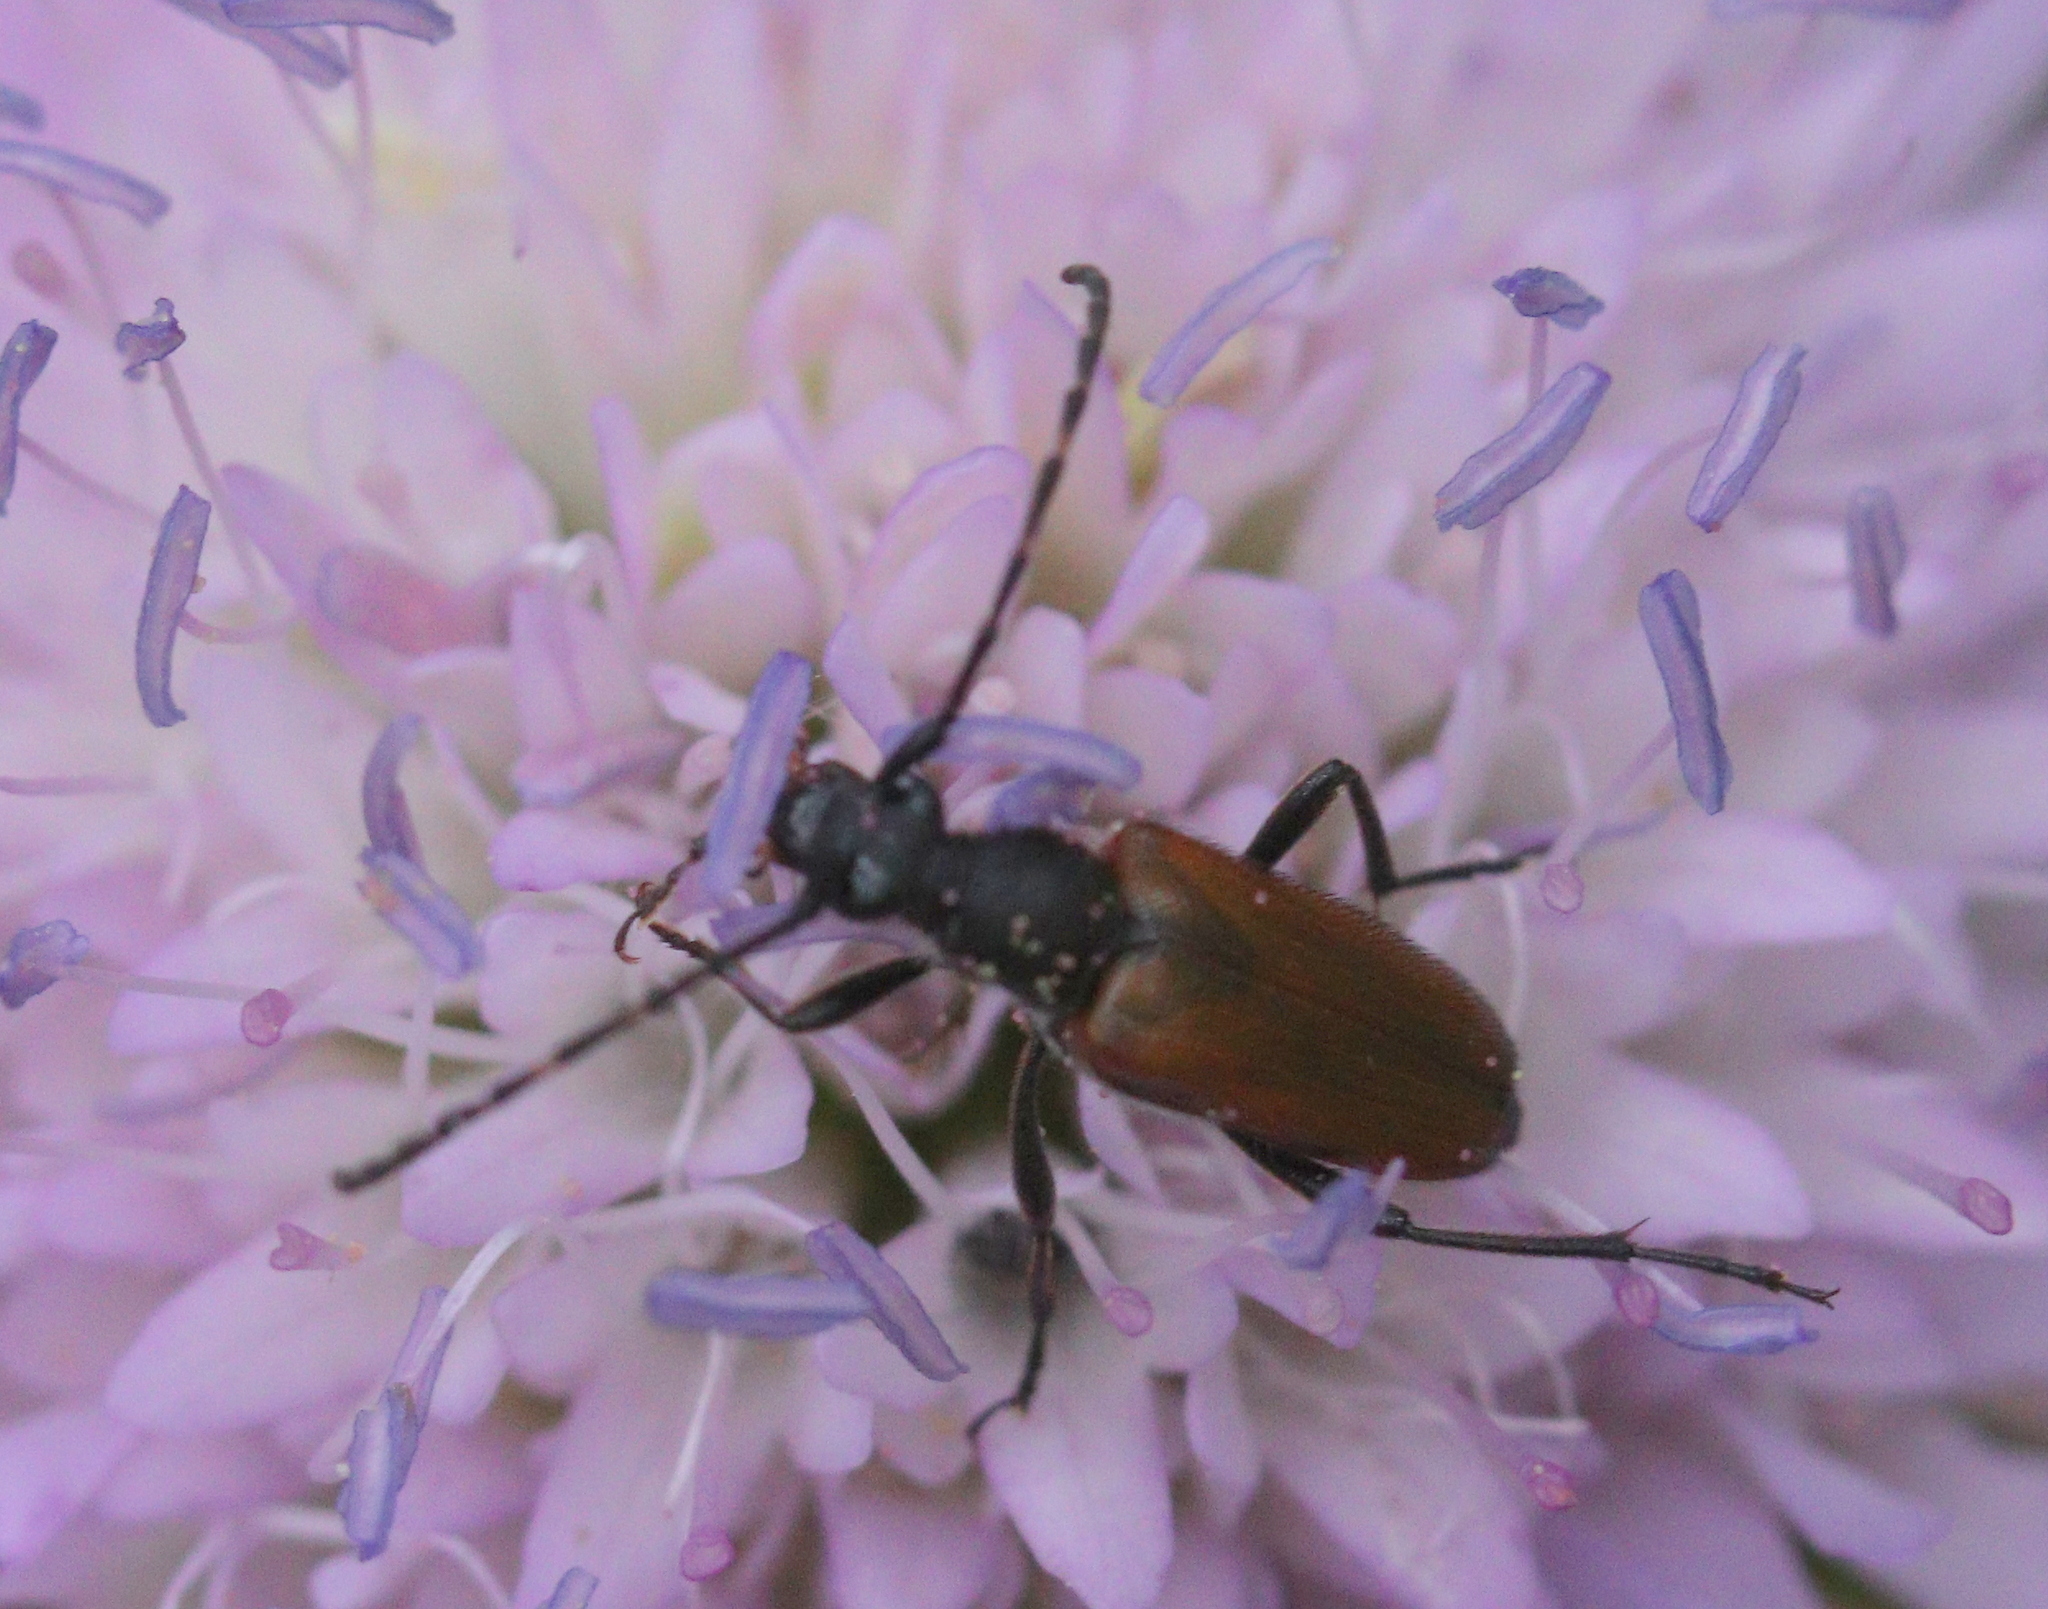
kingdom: Animalia
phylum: Arthropoda
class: Insecta
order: Coleoptera
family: Cerambycidae
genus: Paracorymbia
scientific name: Paracorymbia maculicornis
